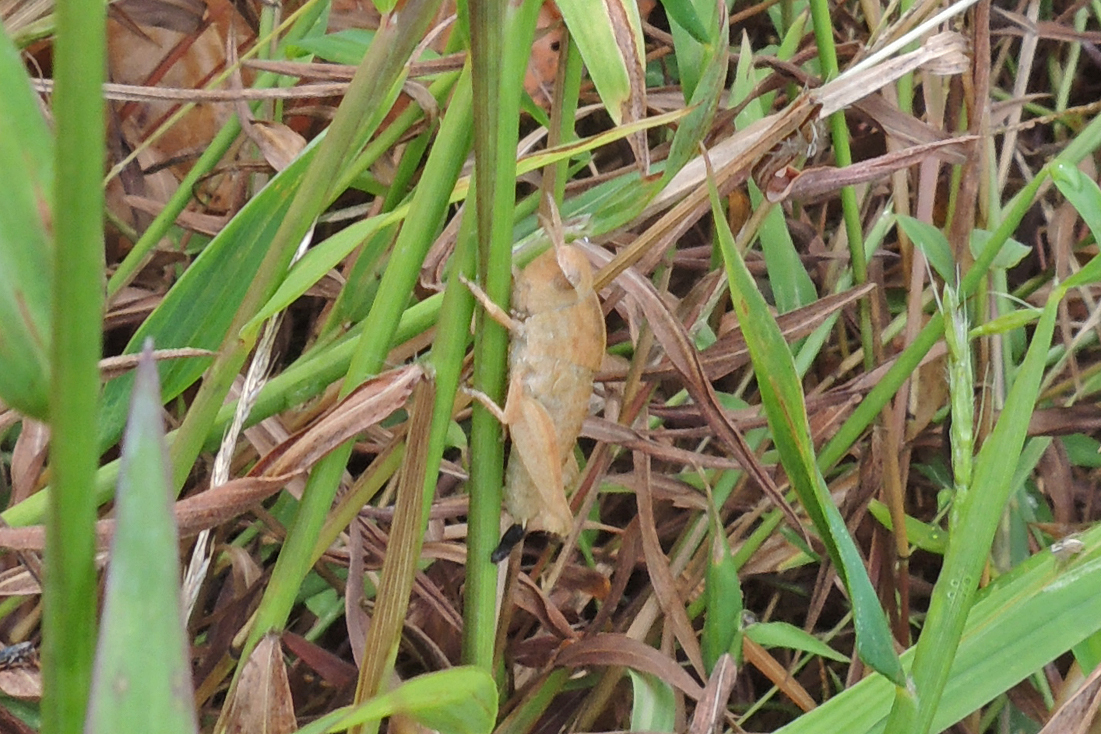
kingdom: Animalia
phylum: Arthropoda
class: Insecta
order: Orthoptera
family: Acrididae
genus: Chortophaga
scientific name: Chortophaga viridifasciata
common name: Green-striped grasshopper
